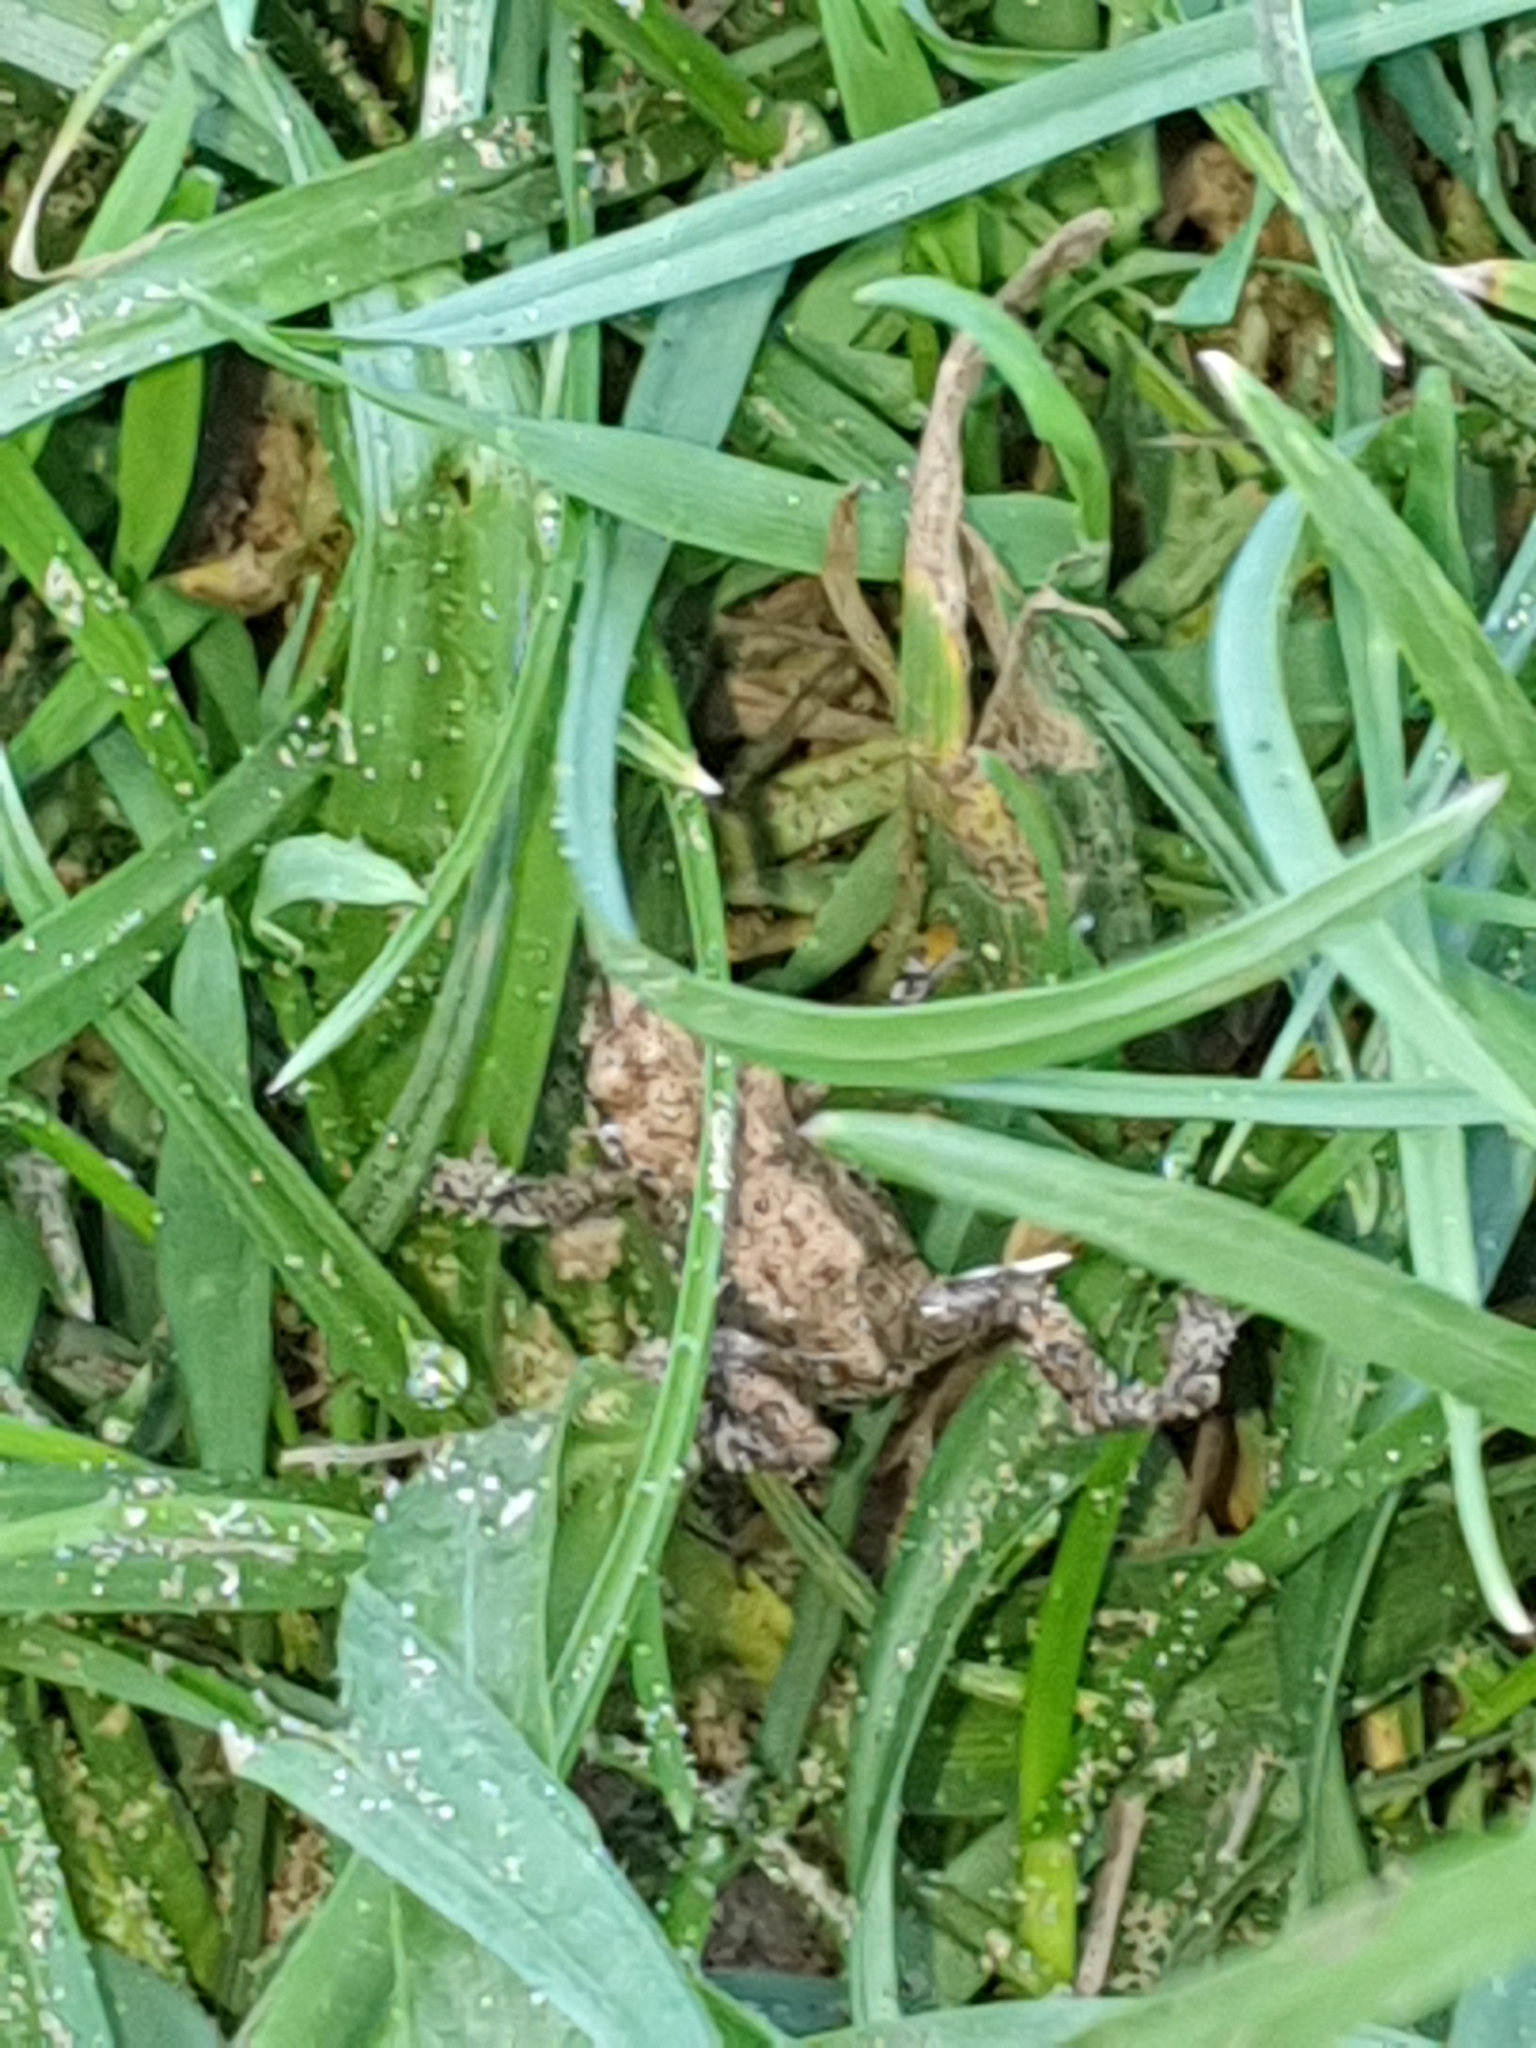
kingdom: Animalia
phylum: Chordata
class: Amphibia
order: Anura
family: Bufonidae
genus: Bufo
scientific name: Bufo bufo
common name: Common toad
